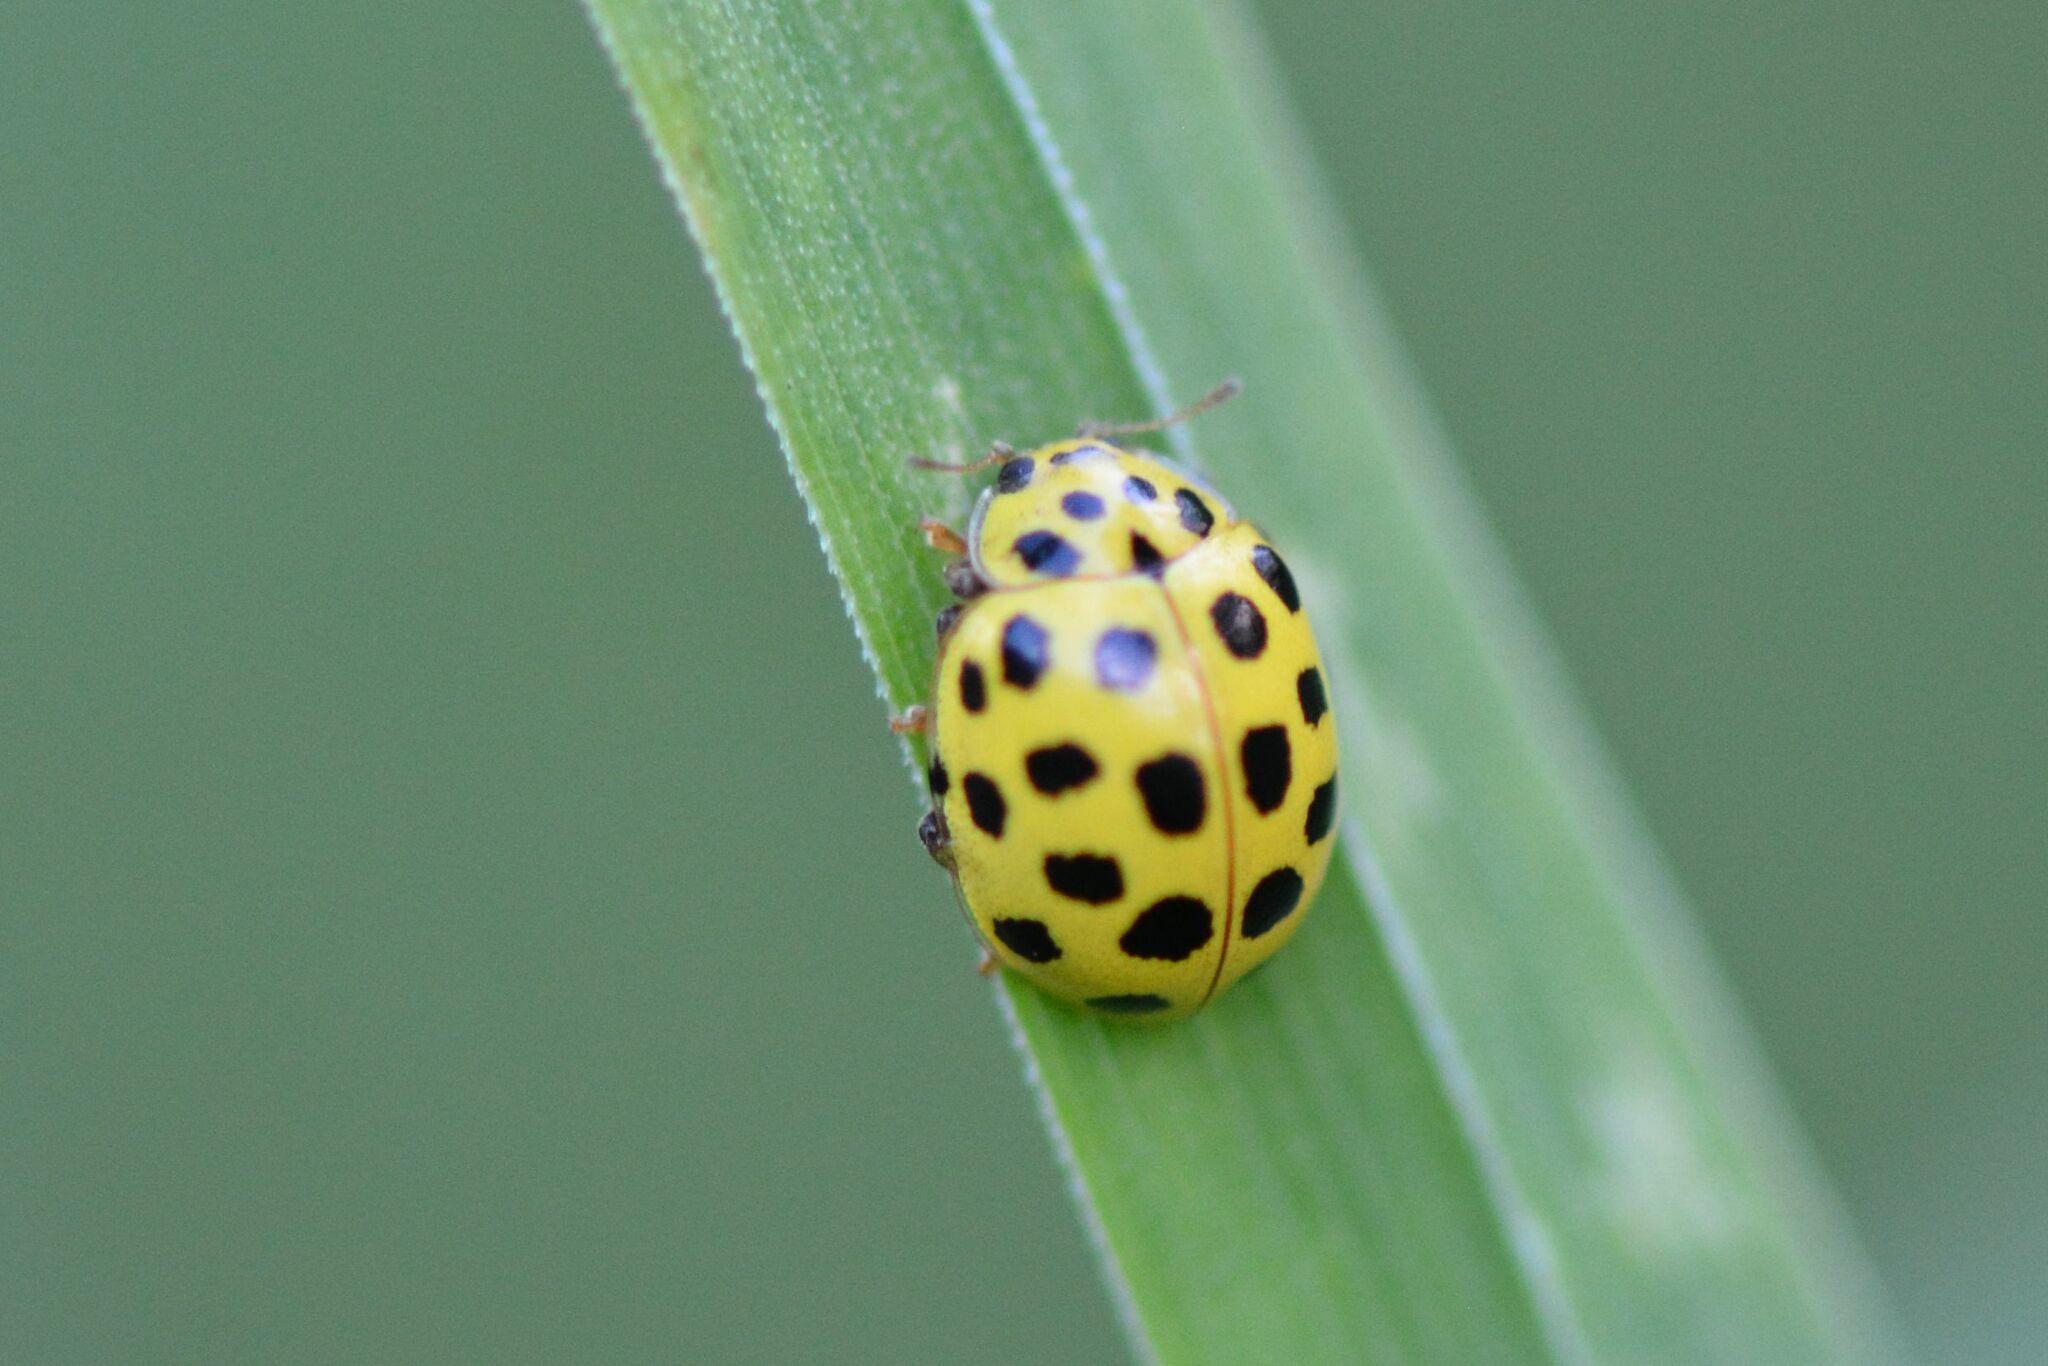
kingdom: Animalia
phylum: Arthropoda
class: Insecta
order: Coleoptera
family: Coccinellidae
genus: Psyllobora
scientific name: Psyllobora vigintiduopunctata
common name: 22-spot ladybird
